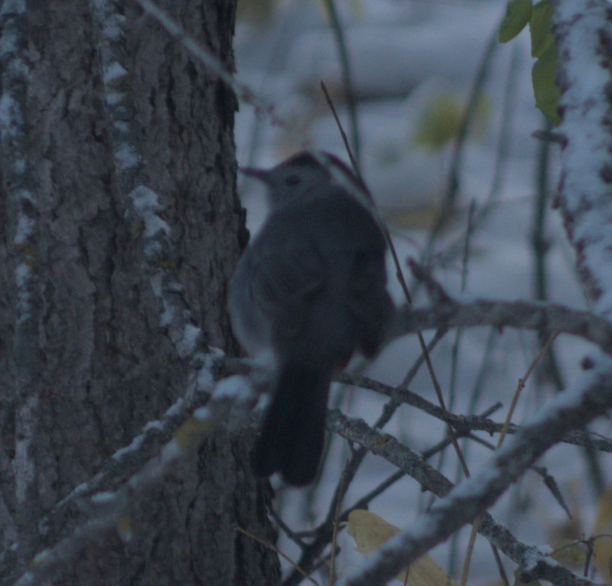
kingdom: Animalia
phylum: Chordata
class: Aves
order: Passeriformes
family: Mimidae
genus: Dumetella
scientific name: Dumetella carolinensis
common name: Gray catbird
